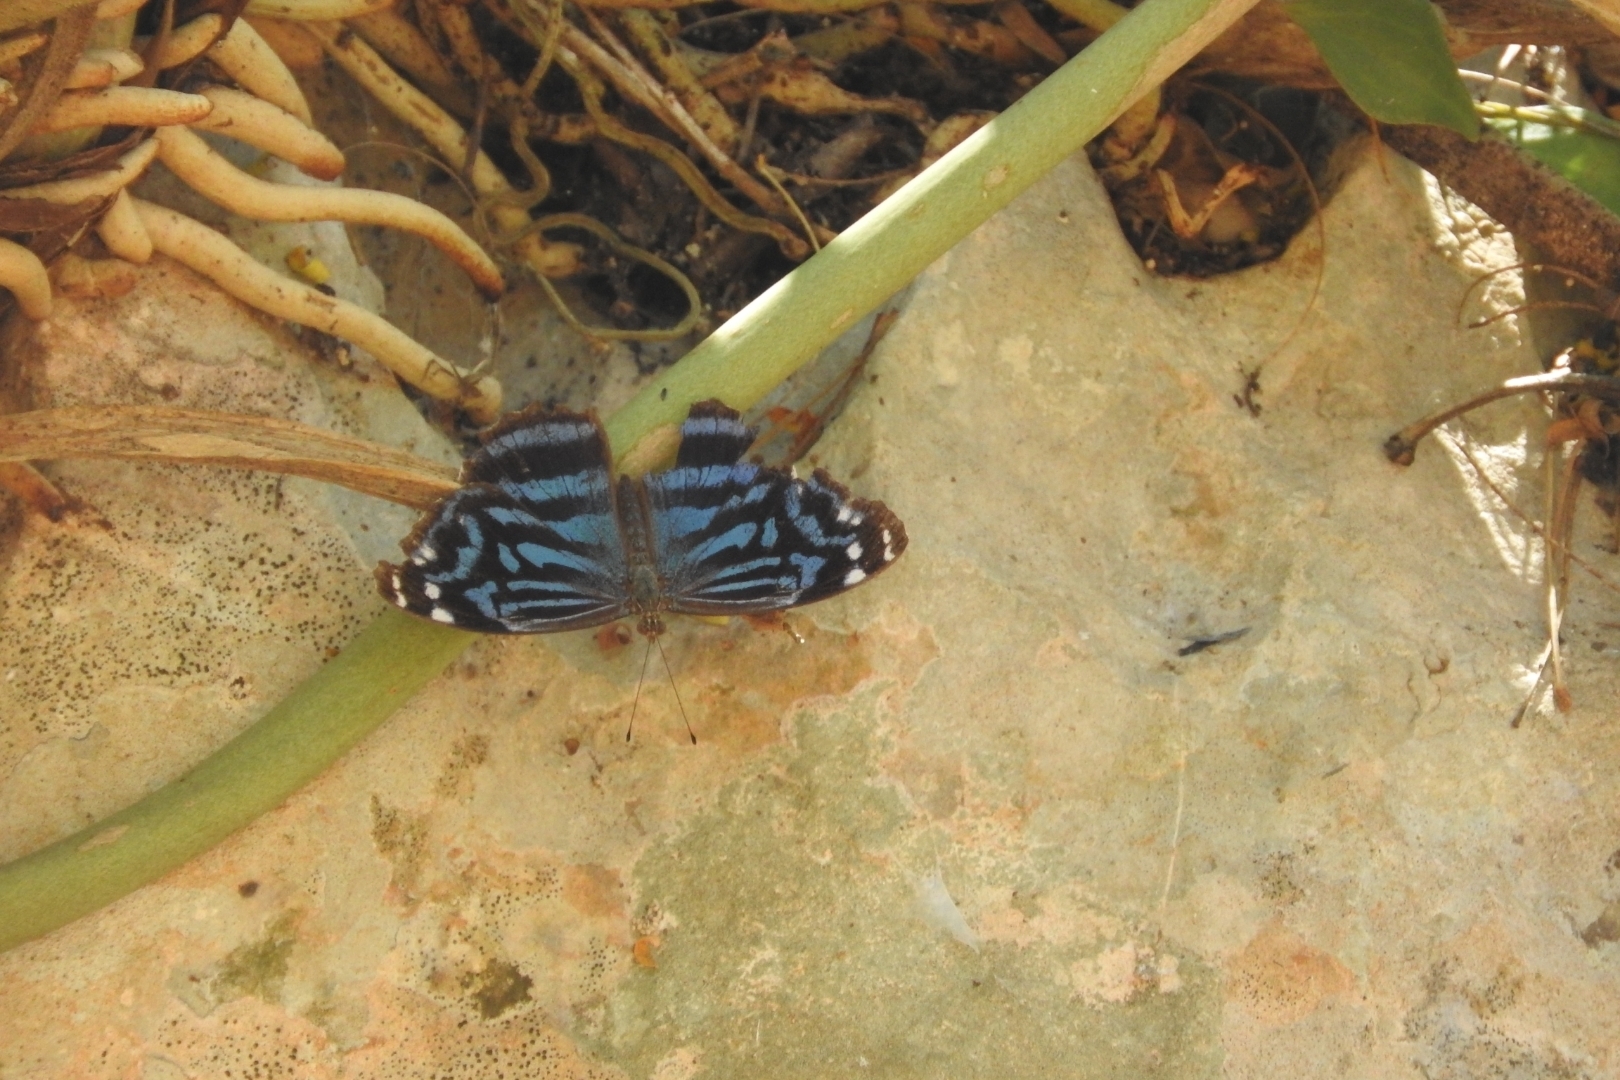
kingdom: Animalia
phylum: Arthropoda
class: Insecta
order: Lepidoptera
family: Nymphalidae
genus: Myscelia
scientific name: Myscelia ethusa
